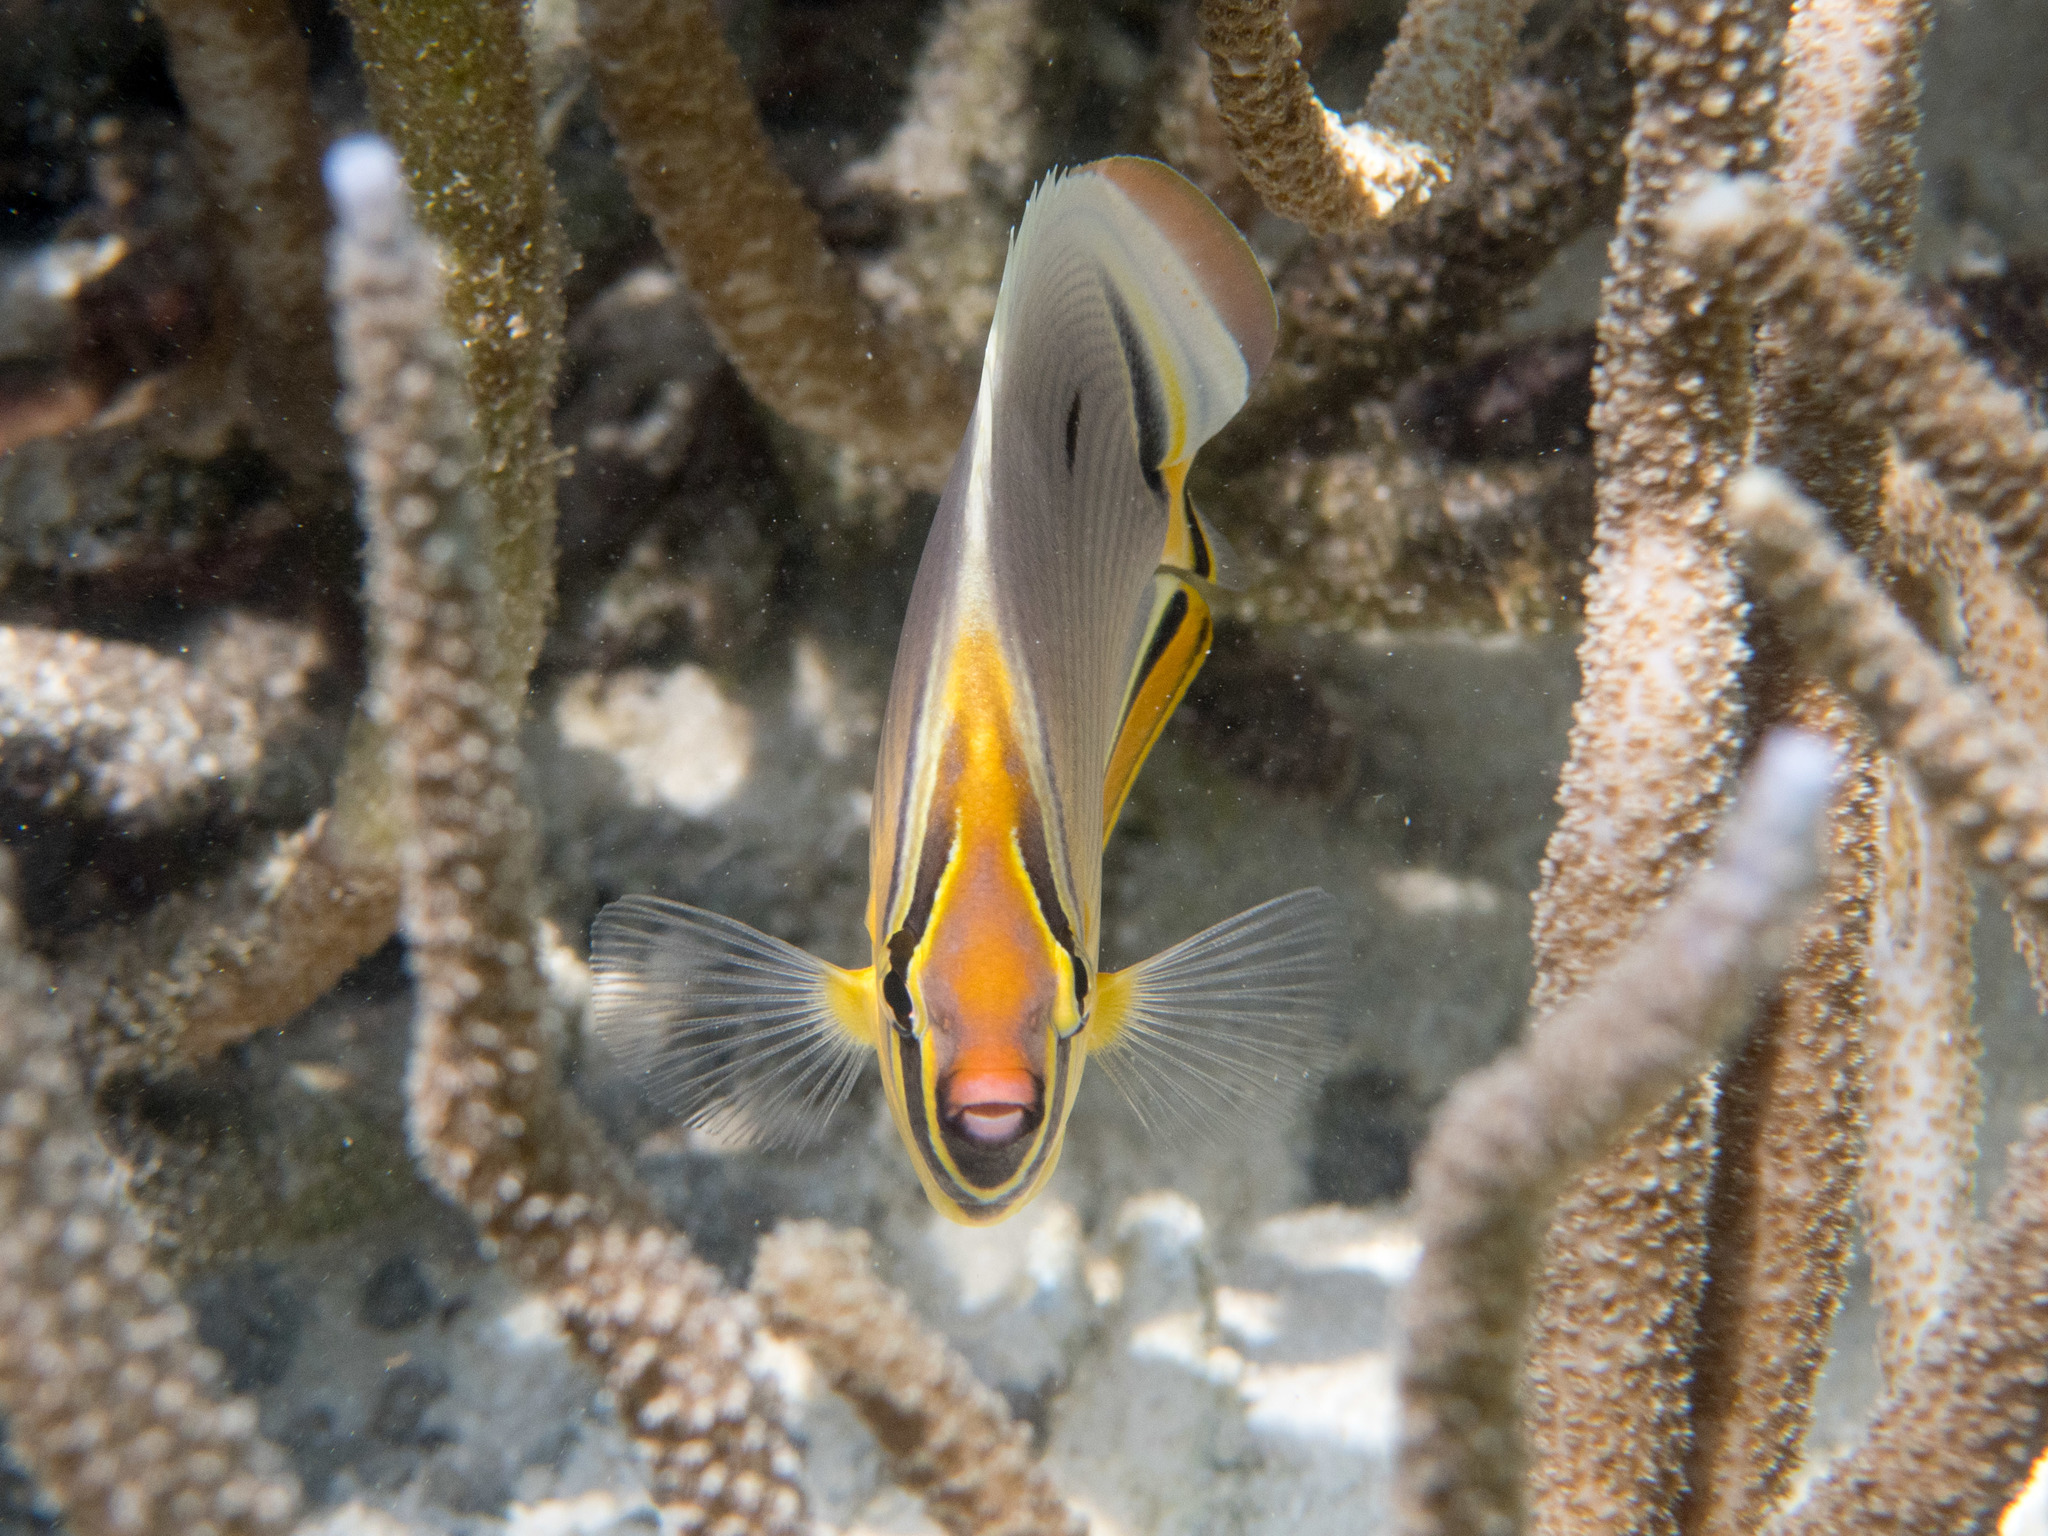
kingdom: Animalia
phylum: Chordata
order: Perciformes
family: Chaetodontidae
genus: Chaetodon
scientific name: Chaetodon trifasciatus
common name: Redfin butterflyfish
